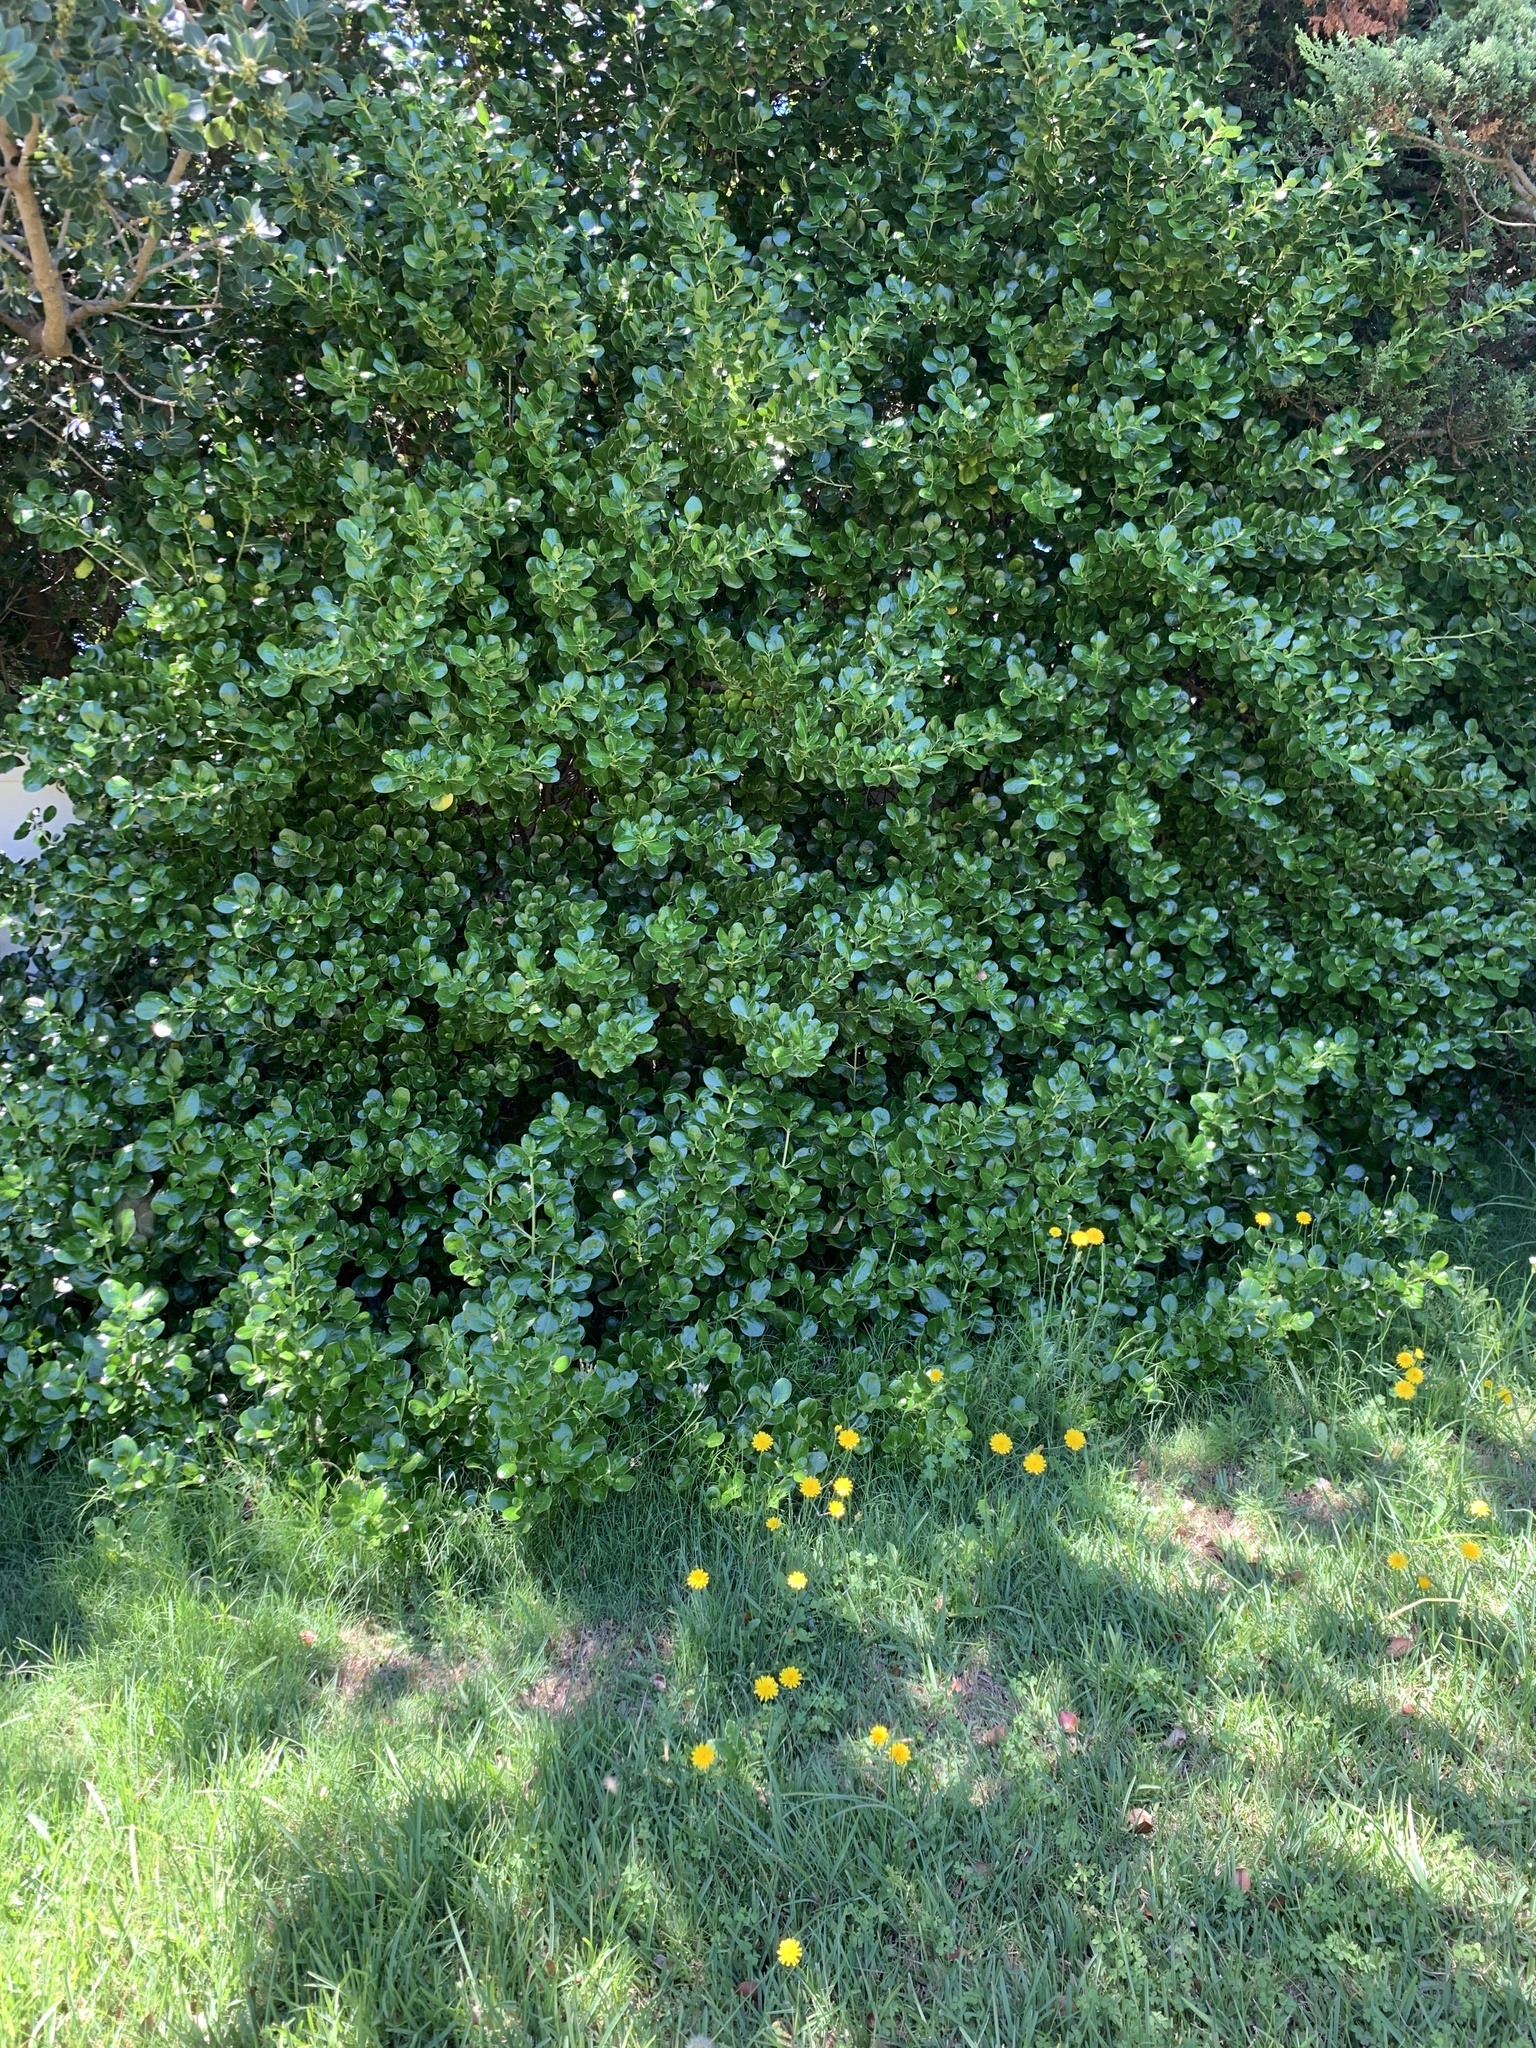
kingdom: Plantae
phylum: Tracheophyta
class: Magnoliopsida
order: Gentianales
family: Rubiaceae
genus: Coprosma
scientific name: Coprosma repens
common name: Tree bedstraw
